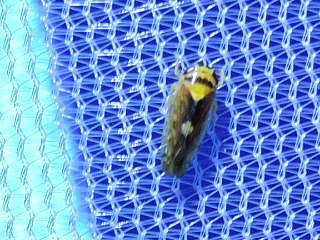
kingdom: Animalia
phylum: Arthropoda
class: Insecta
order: Hemiptera
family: Cicadellidae
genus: Eutettix
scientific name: Eutettix pictus
